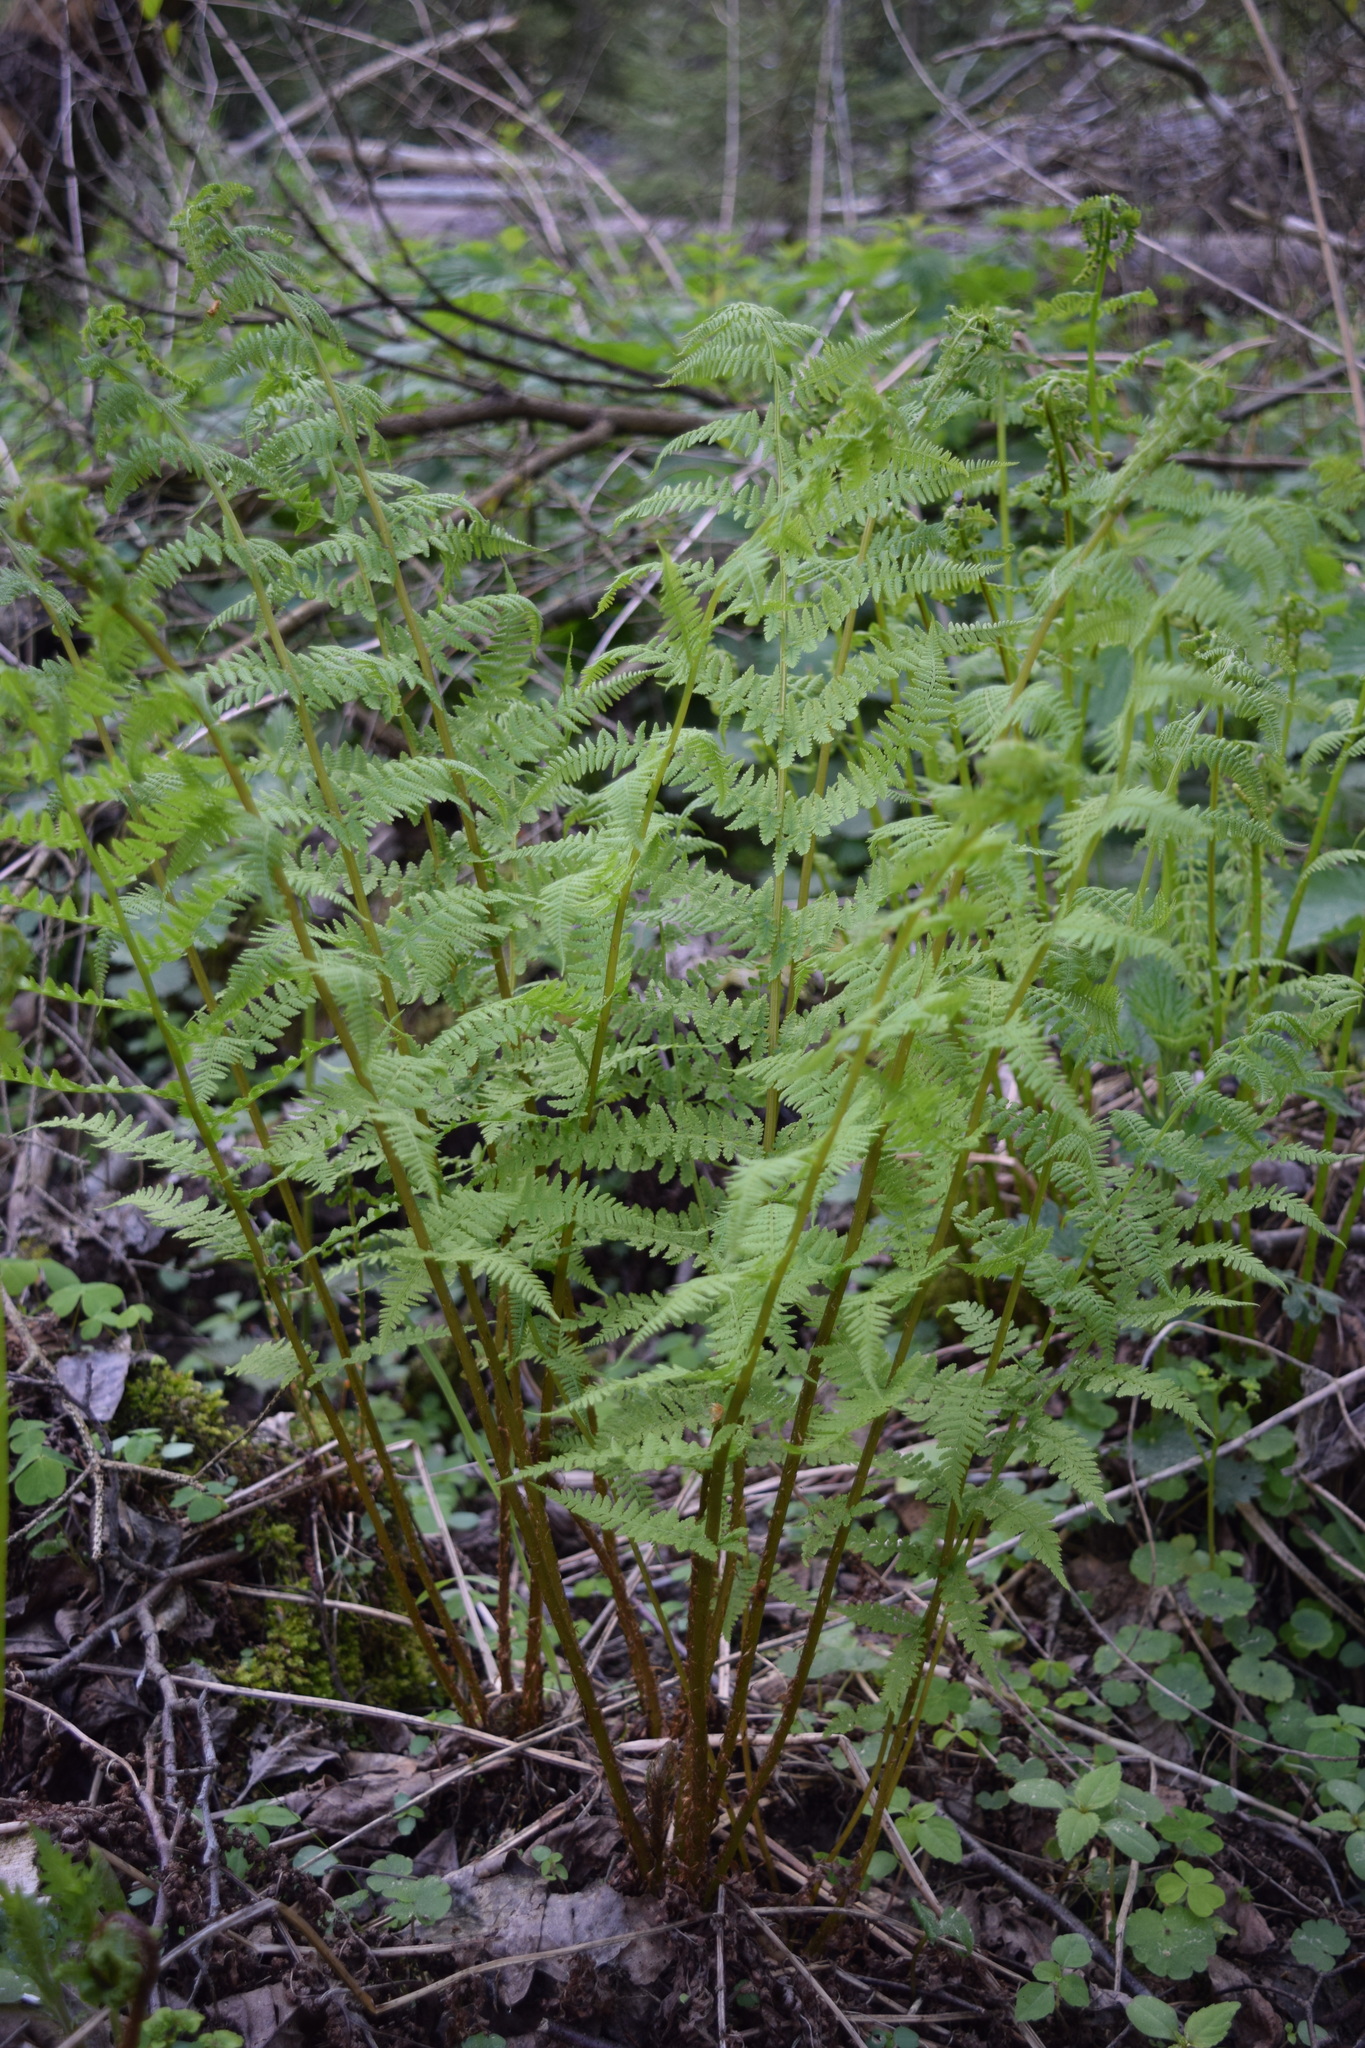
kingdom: Plantae
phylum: Tracheophyta
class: Polypodiopsida
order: Polypodiales
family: Athyriaceae
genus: Athyrium
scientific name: Athyrium filix-femina
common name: Lady fern
